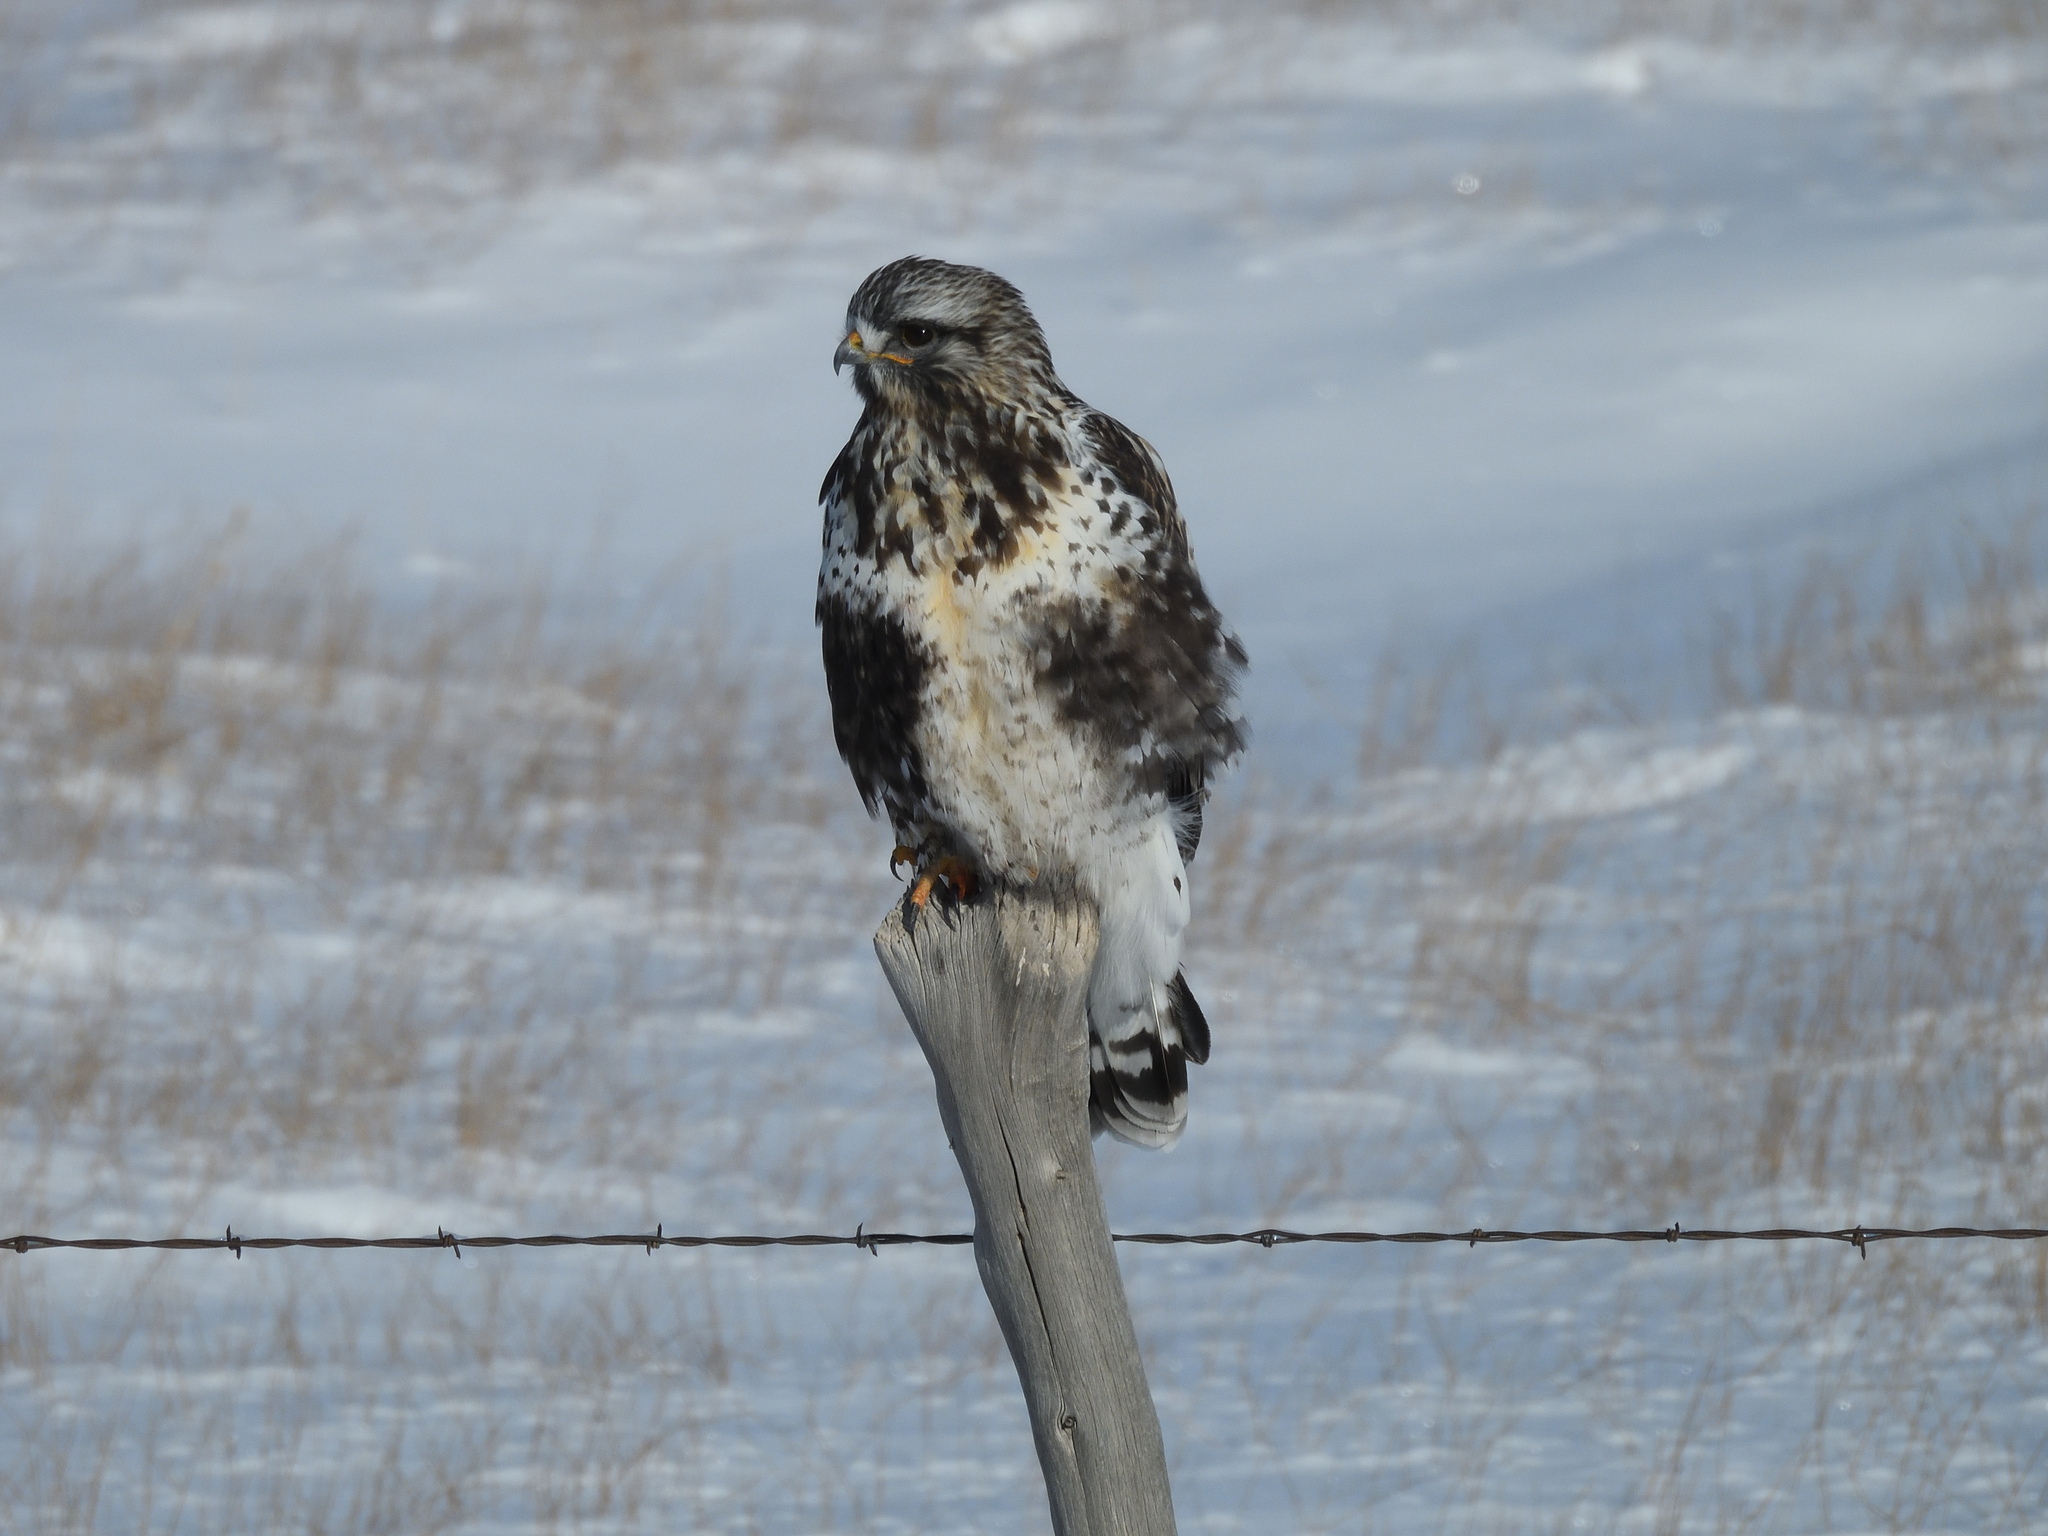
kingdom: Animalia
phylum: Chordata
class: Aves
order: Accipitriformes
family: Accipitridae
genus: Buteo
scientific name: Buteo lagopus
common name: Rough-legged buzzard
